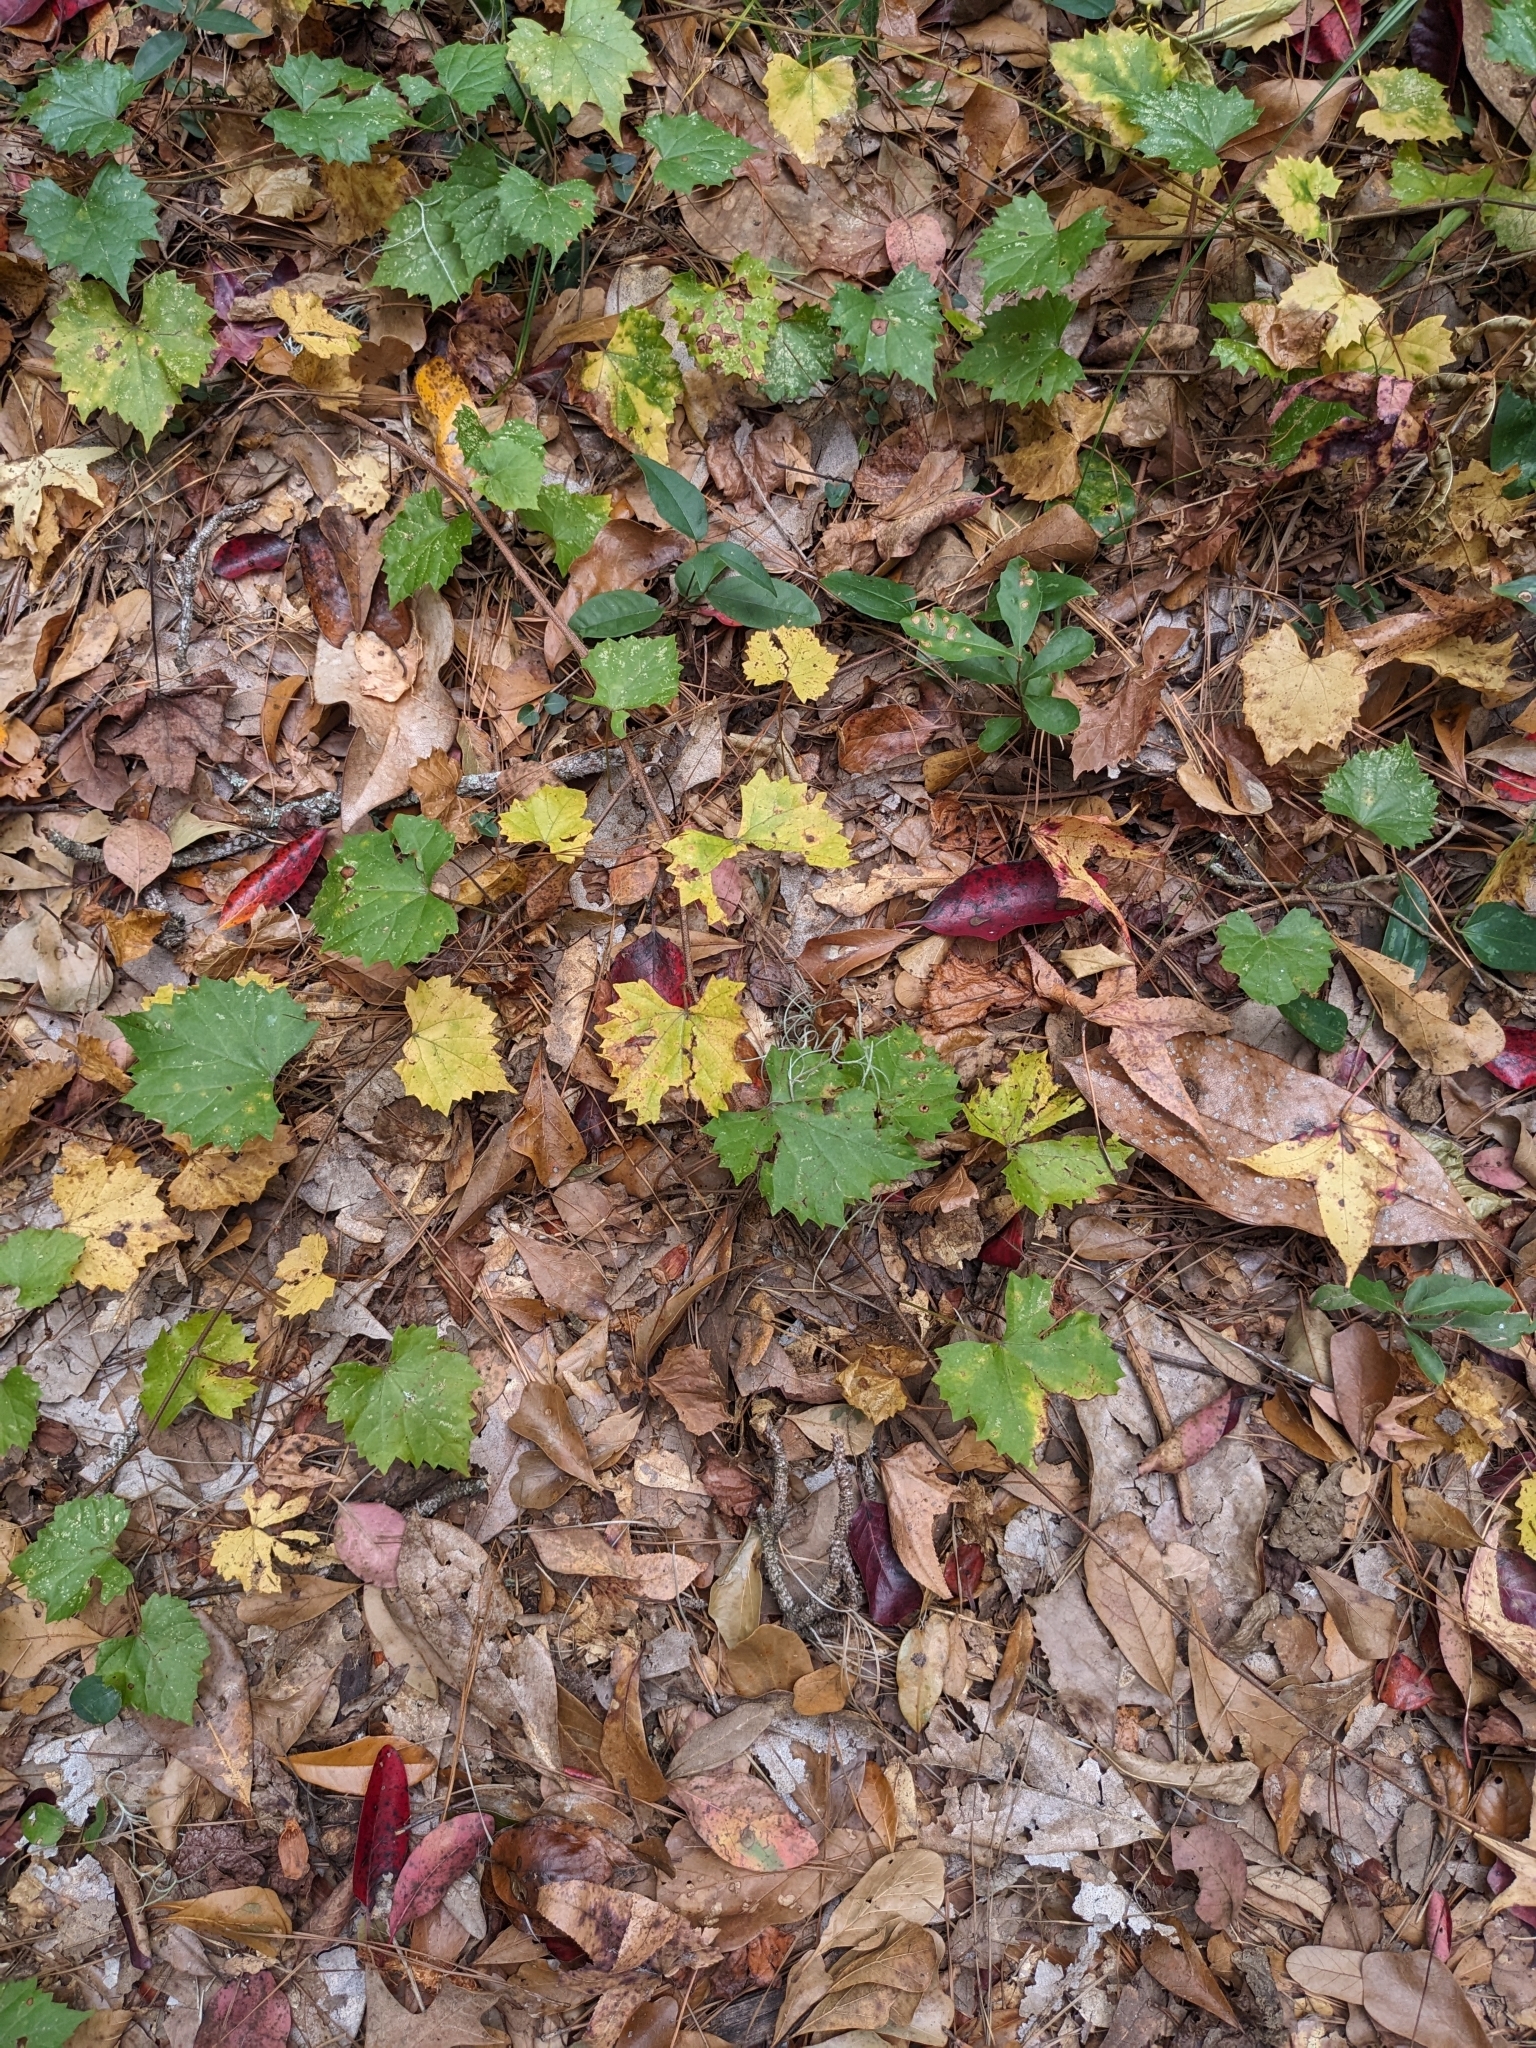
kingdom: Plantae
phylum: Tracheophyta
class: Magnoliopsida
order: Vitales
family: Vitaceae
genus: Vitis
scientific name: Vitis rotundifolia
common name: Muscadine grape
